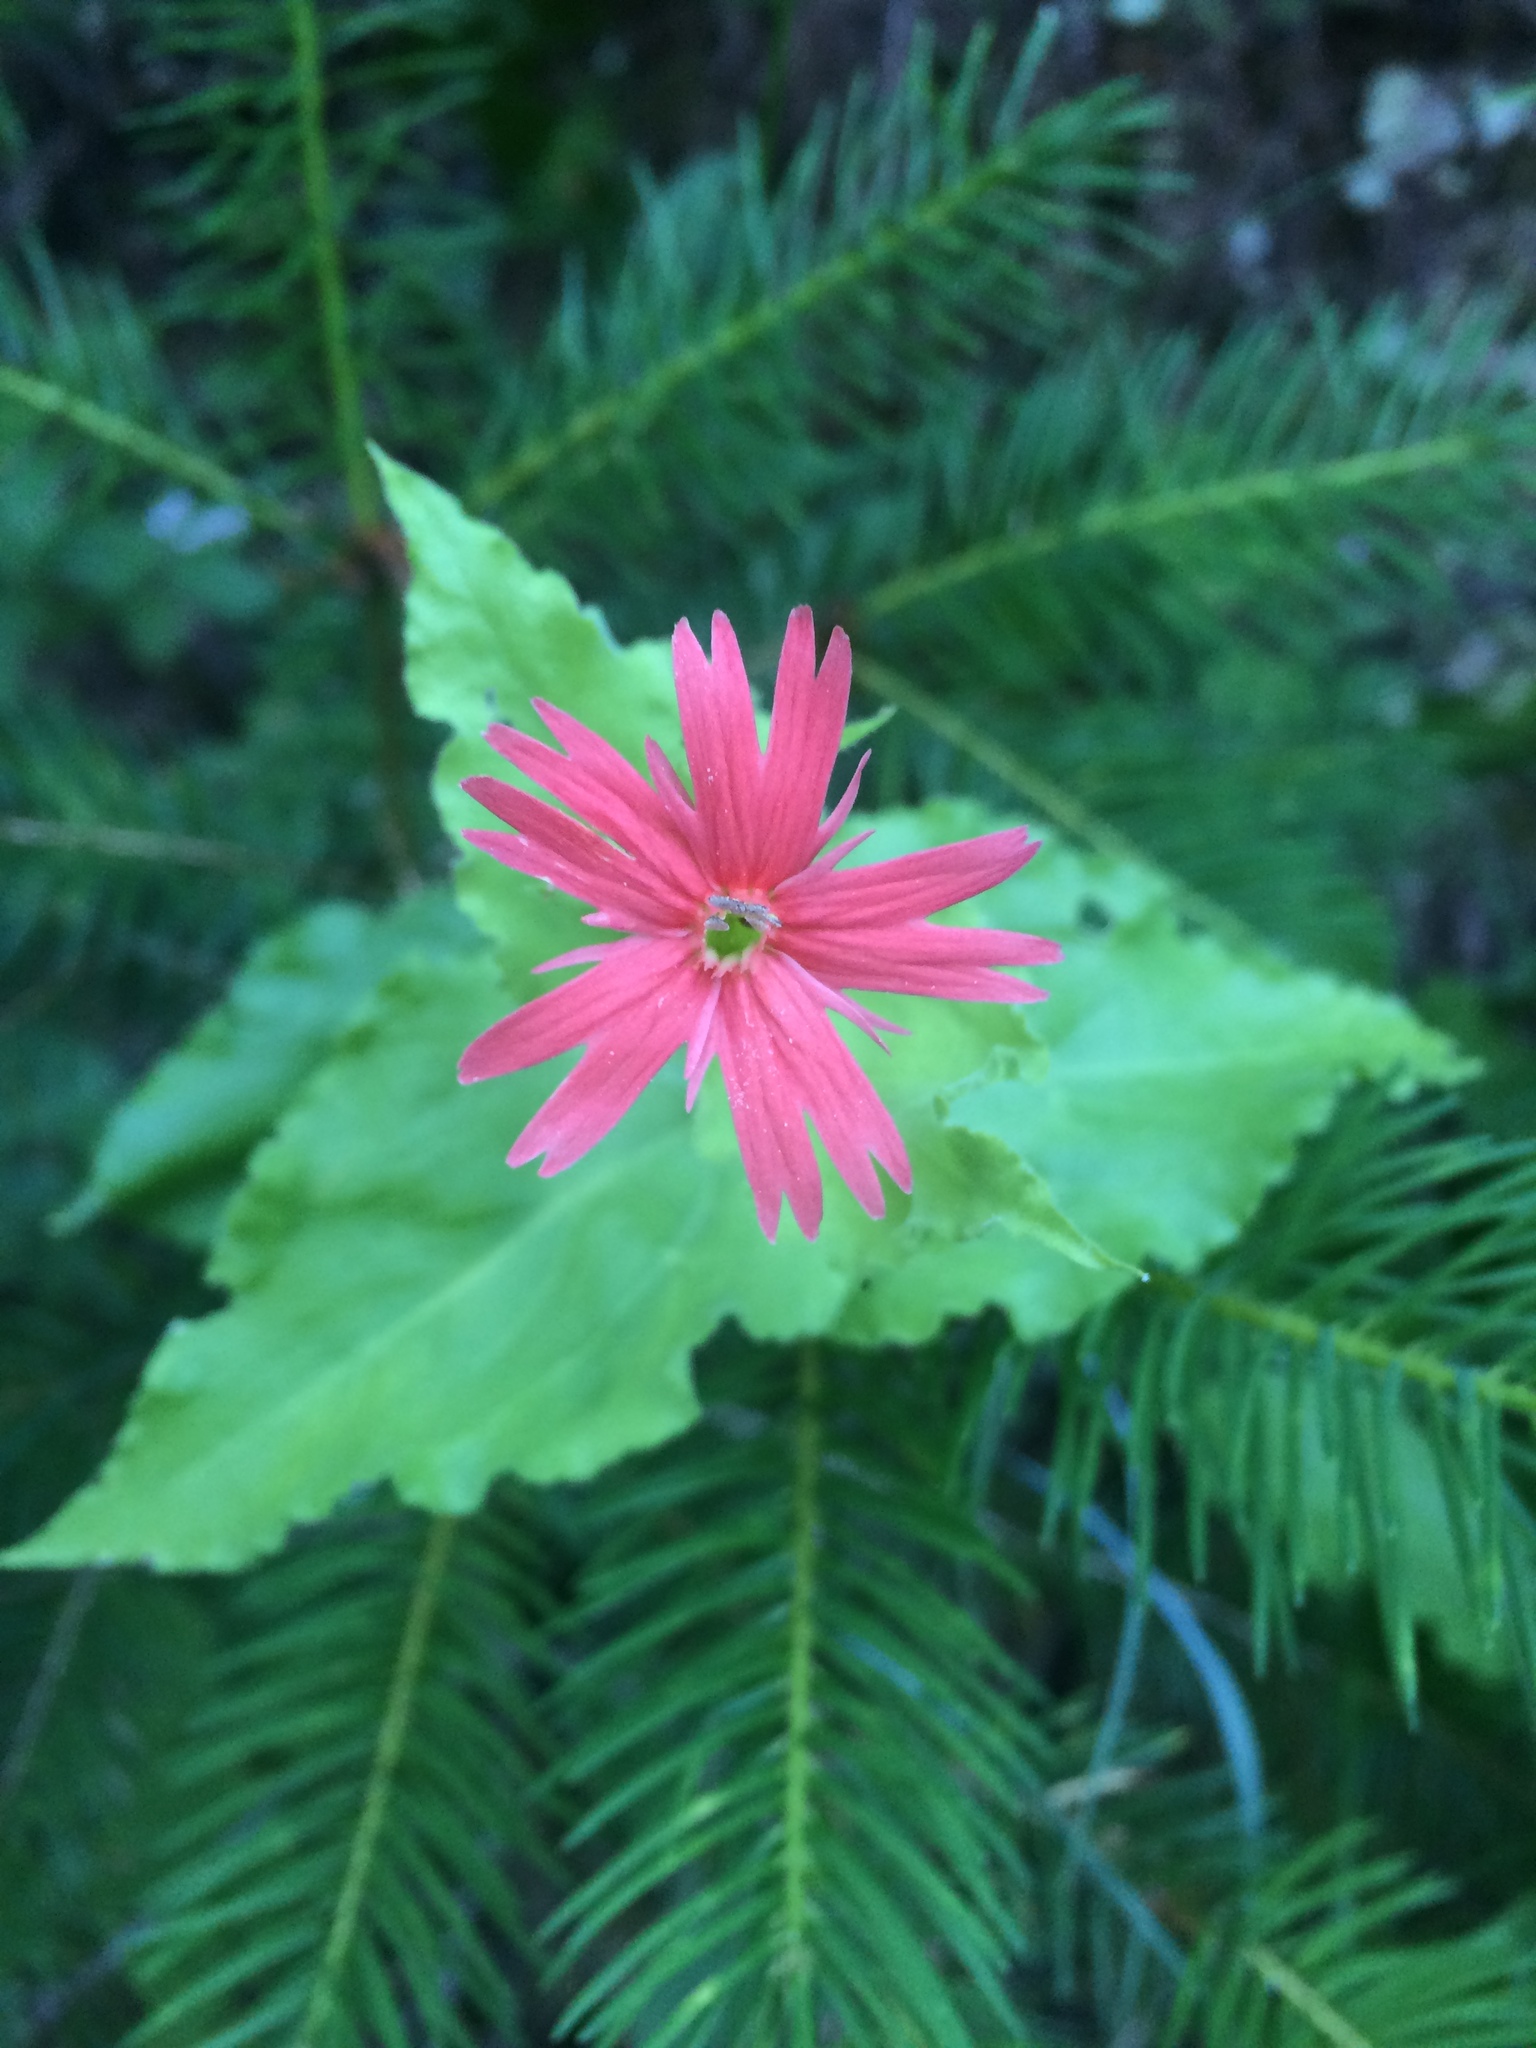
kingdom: Plantae
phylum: Tracheophyta
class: Magnoliopsida
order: Caryophyllales
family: Caryophyllaceae
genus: Silene
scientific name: Silene laciniata
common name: Indian-pink
